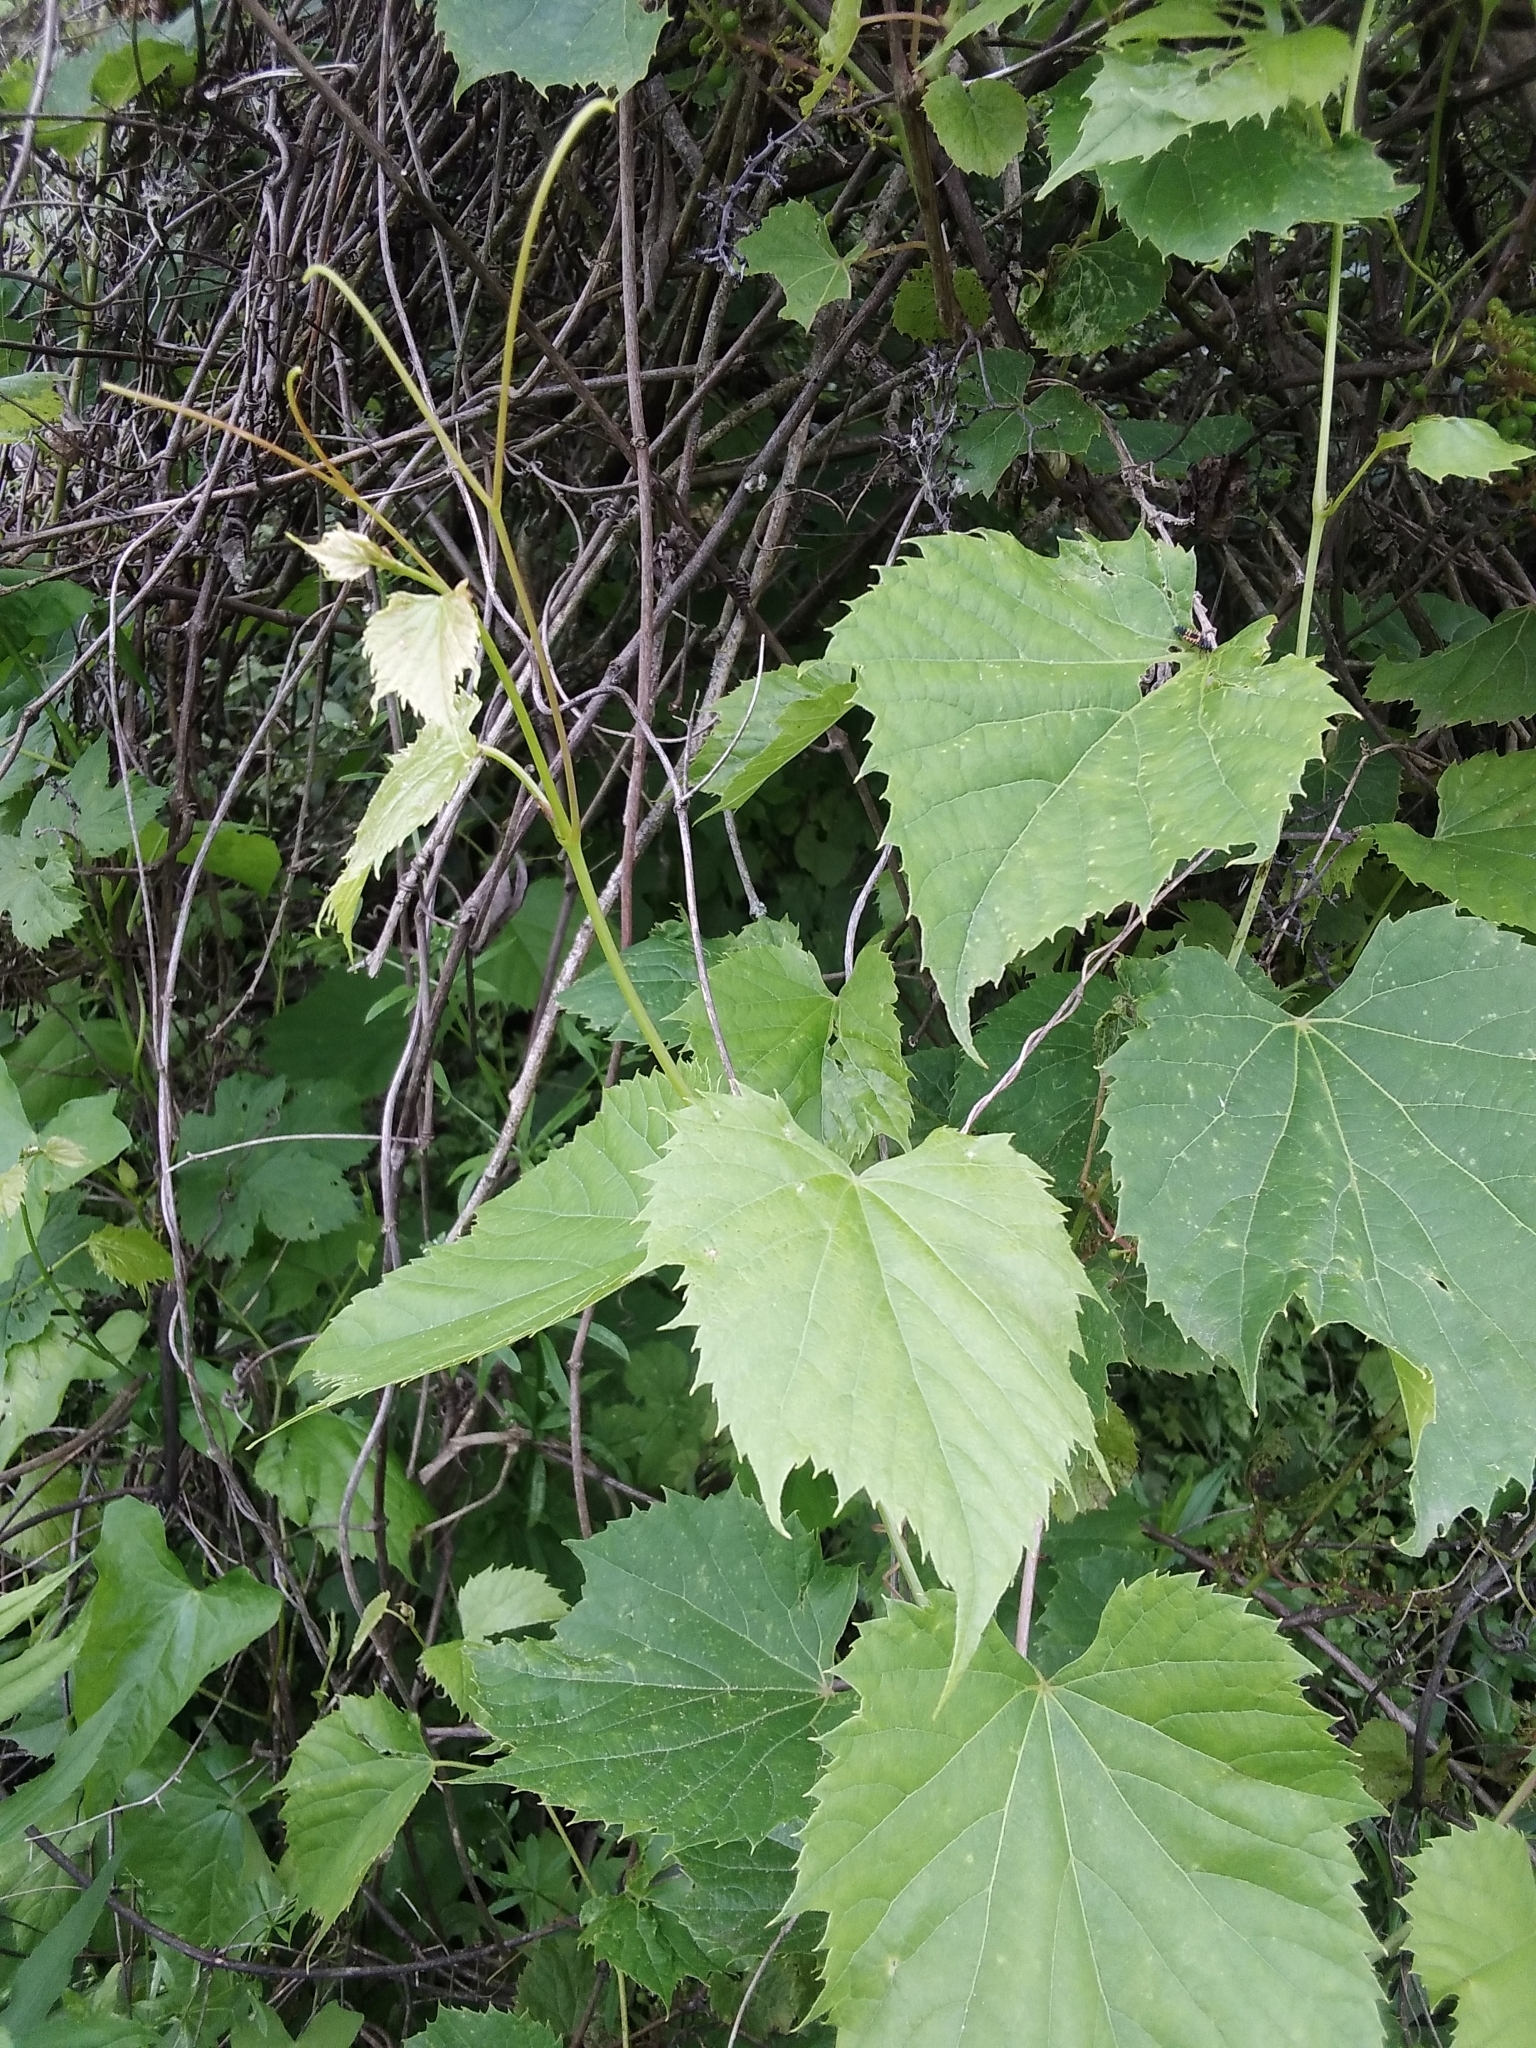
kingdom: Plantae
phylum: Tracheophyta
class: Magnoliopsida
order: Vitales
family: Vitaceae
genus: Vitis
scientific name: Vitis riparia
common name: Frost grape
